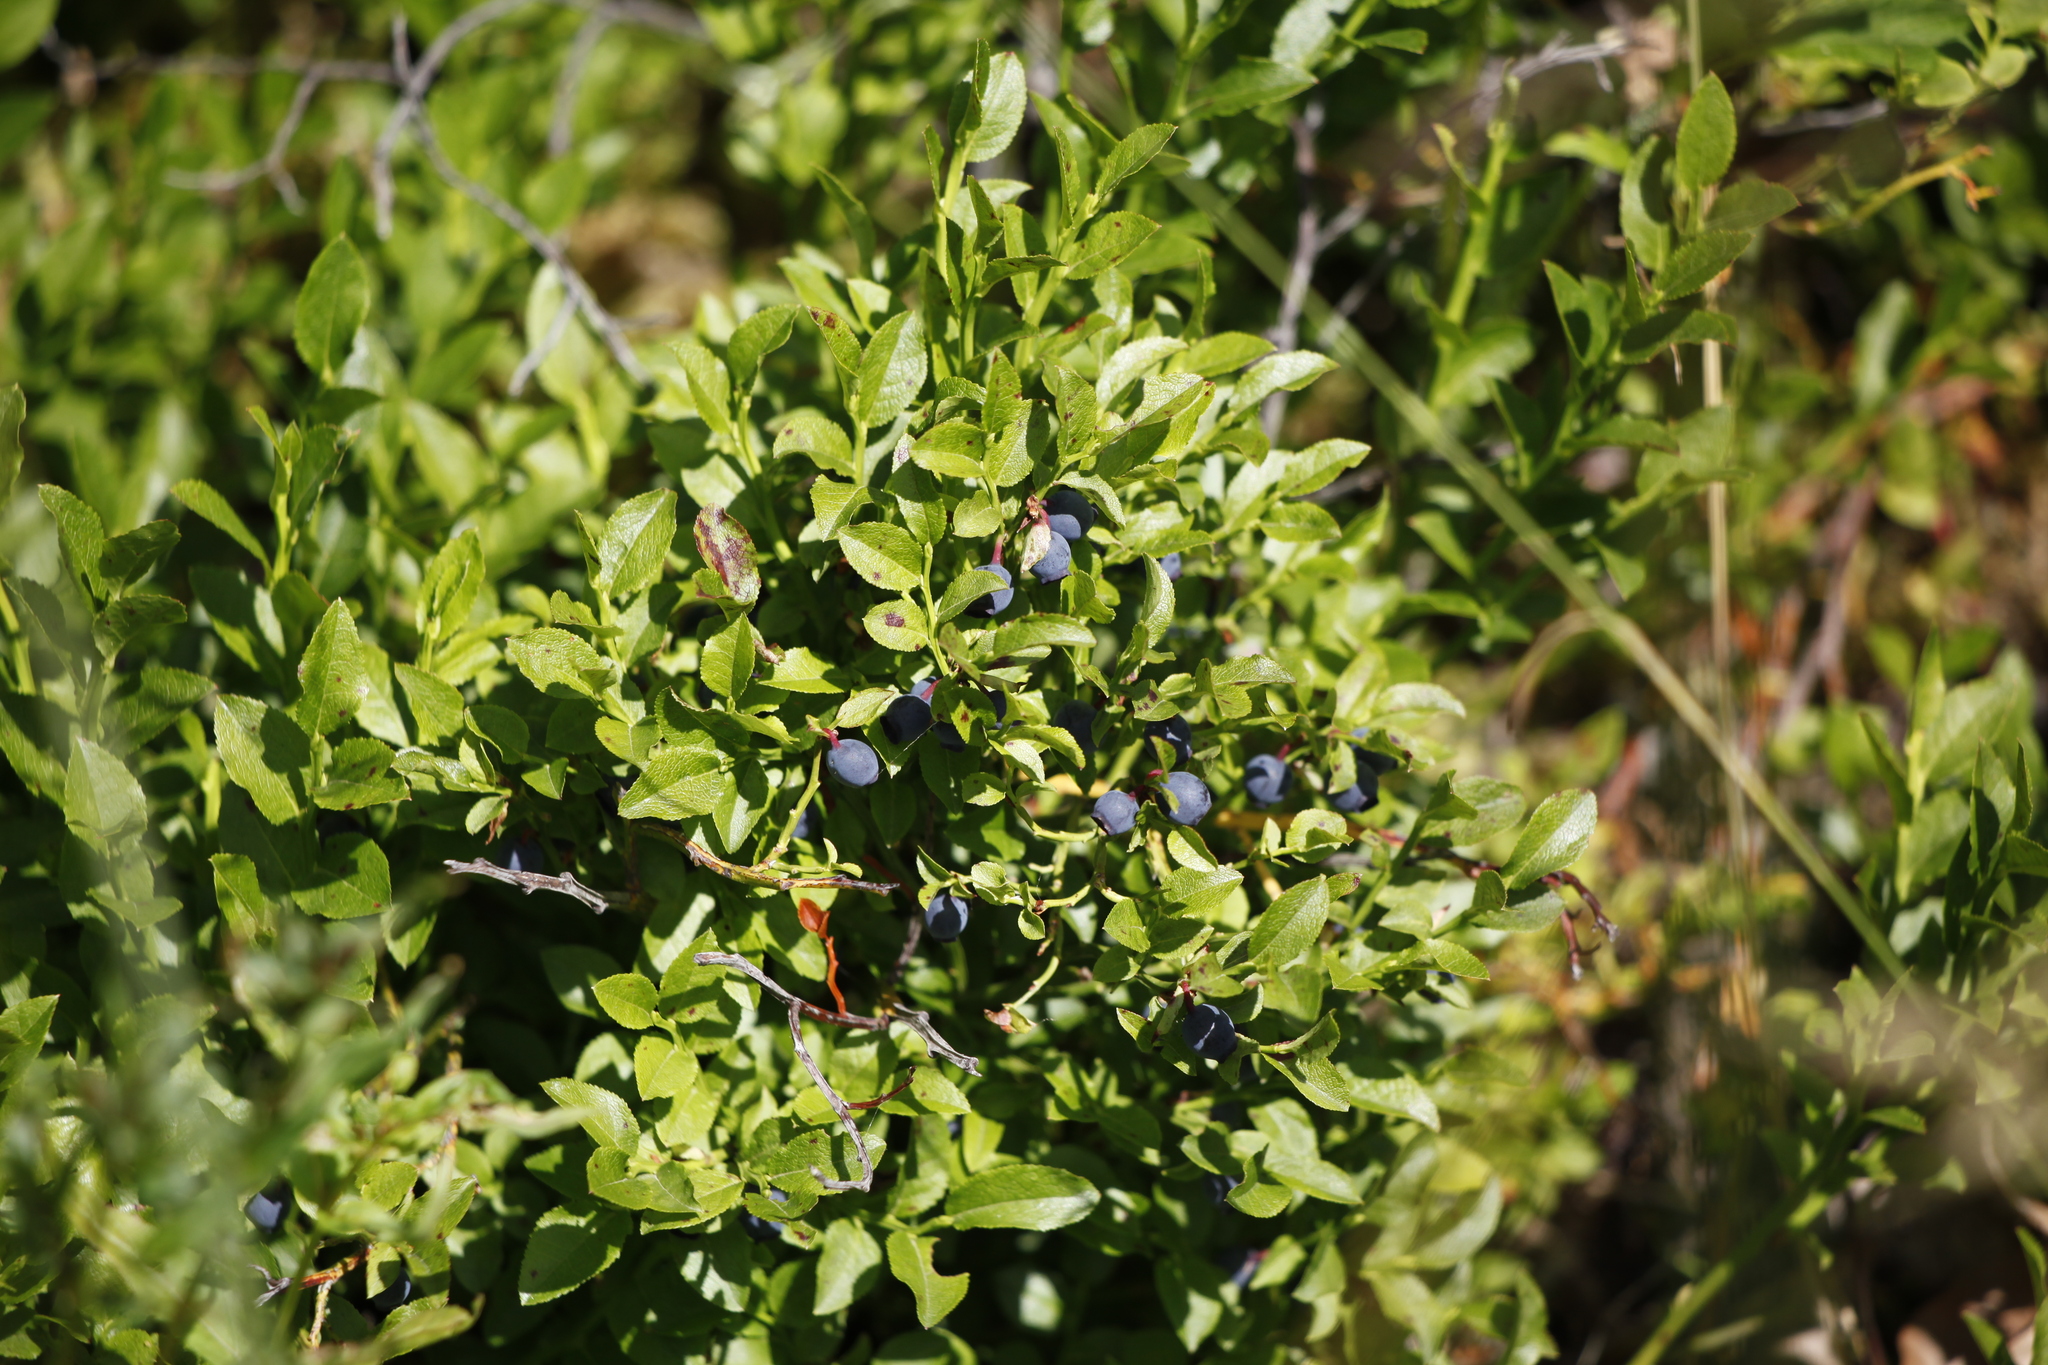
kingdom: Plantae
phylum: Tracheophyta
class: Magnoliopsida
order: Ericales
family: Ericaceae
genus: Vaccinium
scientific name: Vaccinium myrtillus
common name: Bilberry
